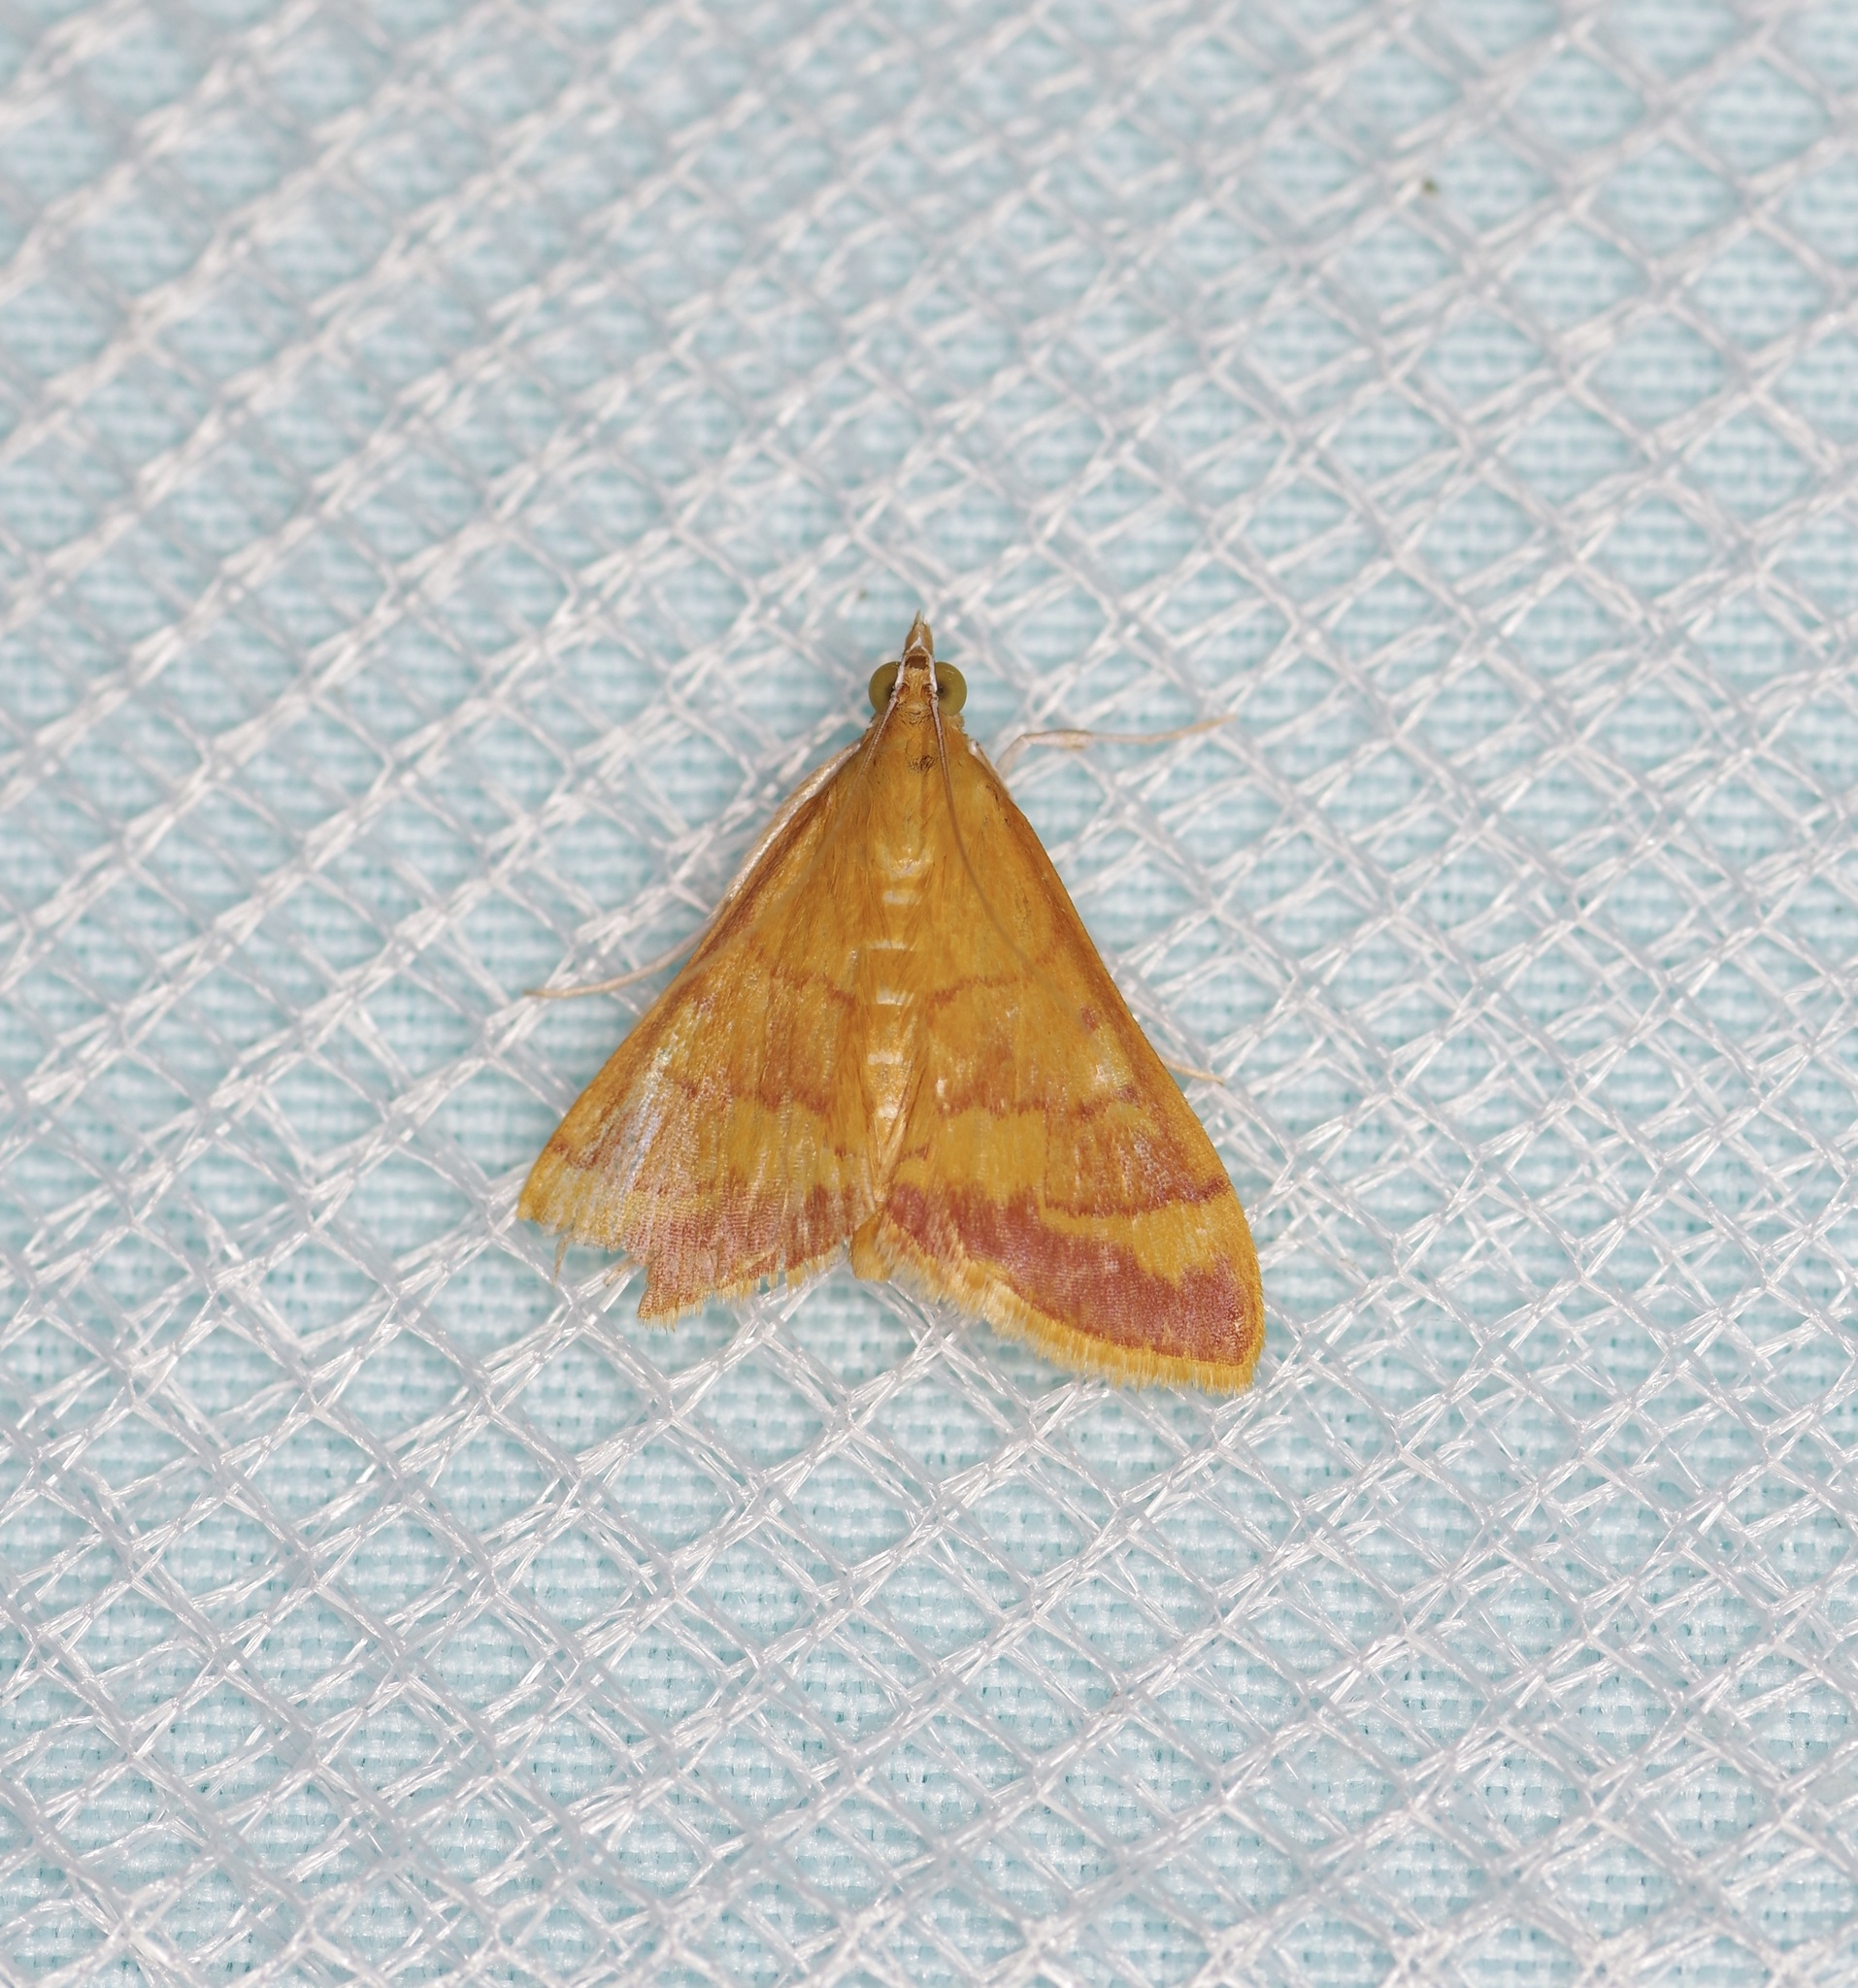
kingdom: Animalia
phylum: Arthropoda
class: Insecta
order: Lepidoptera
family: Crambidae
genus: Pyrausta
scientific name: Pyrausta pseudonythesalis
